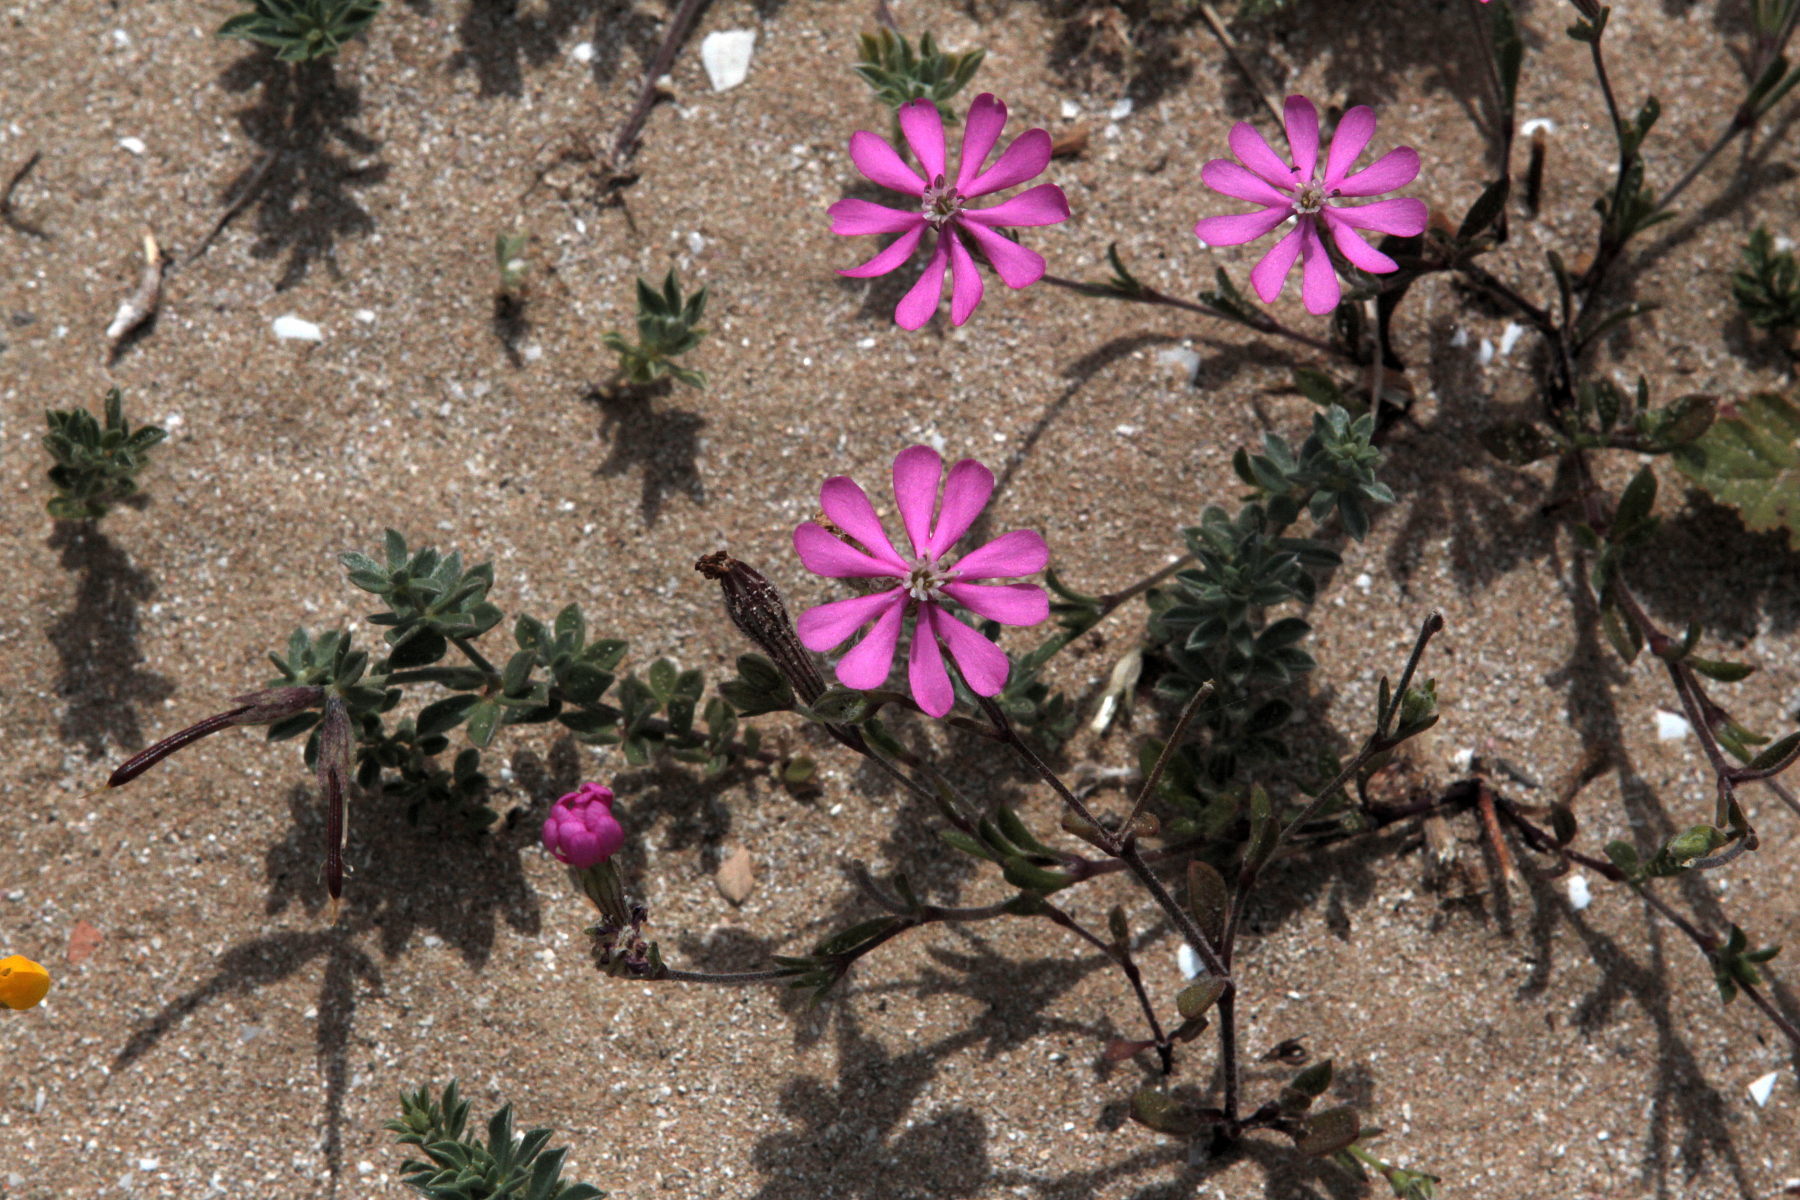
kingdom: Plantae
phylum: Tracheophyta
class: Magnoliopsida
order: Caryophyllales
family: Caryophyllaceae
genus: Silene
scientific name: Silene colorata
